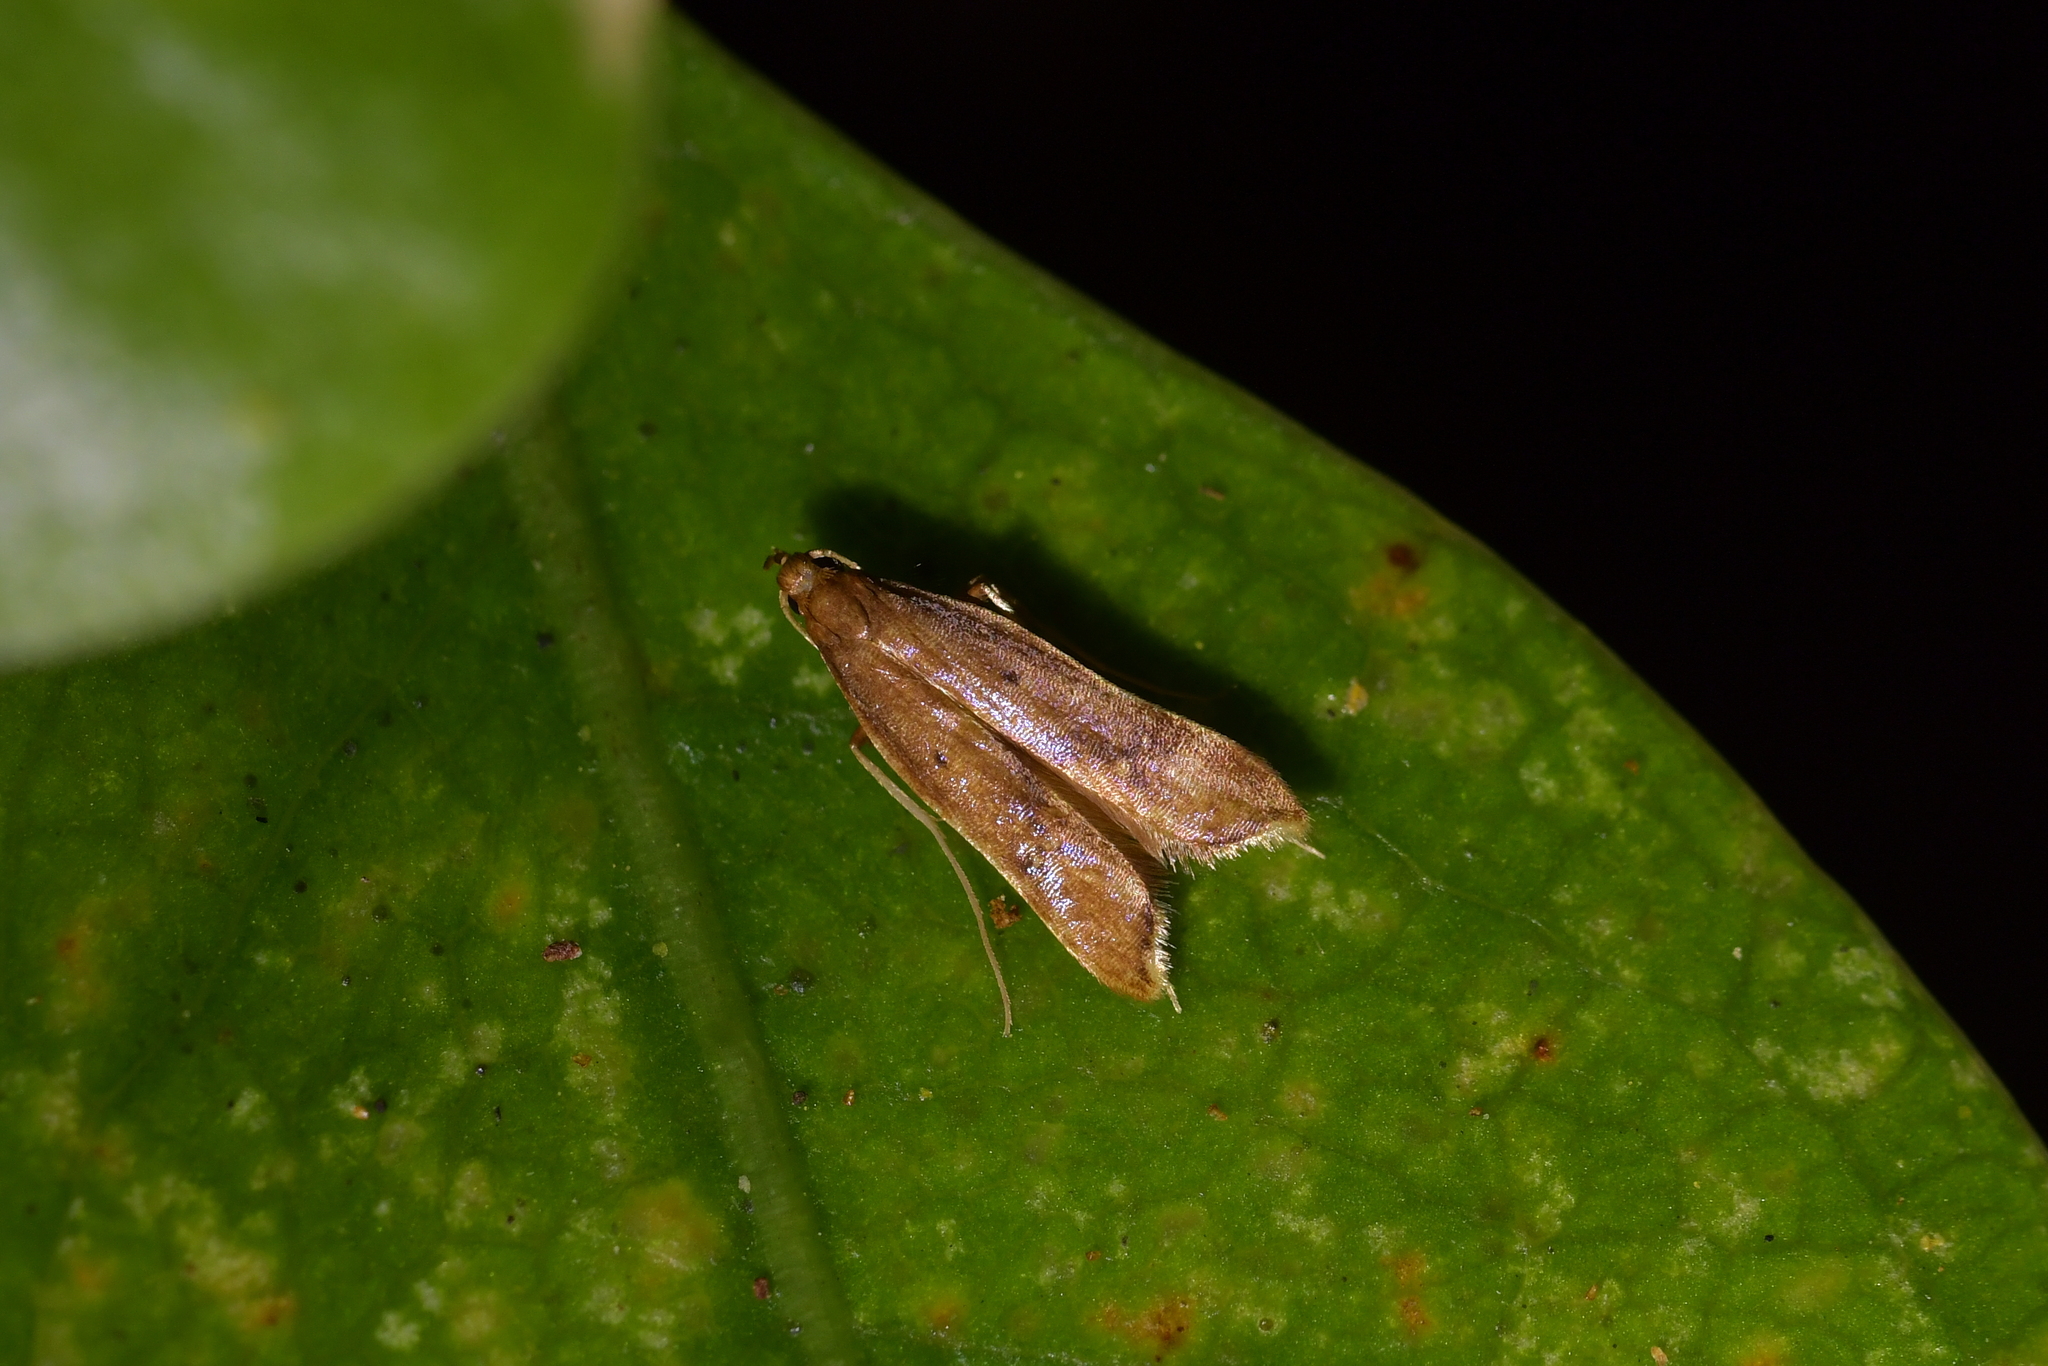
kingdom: Animalia
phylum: Arthropoda
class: Insecta
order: Lepidoptera
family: Epermeniidae
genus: Thambotricha
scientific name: Thambotricha vates
